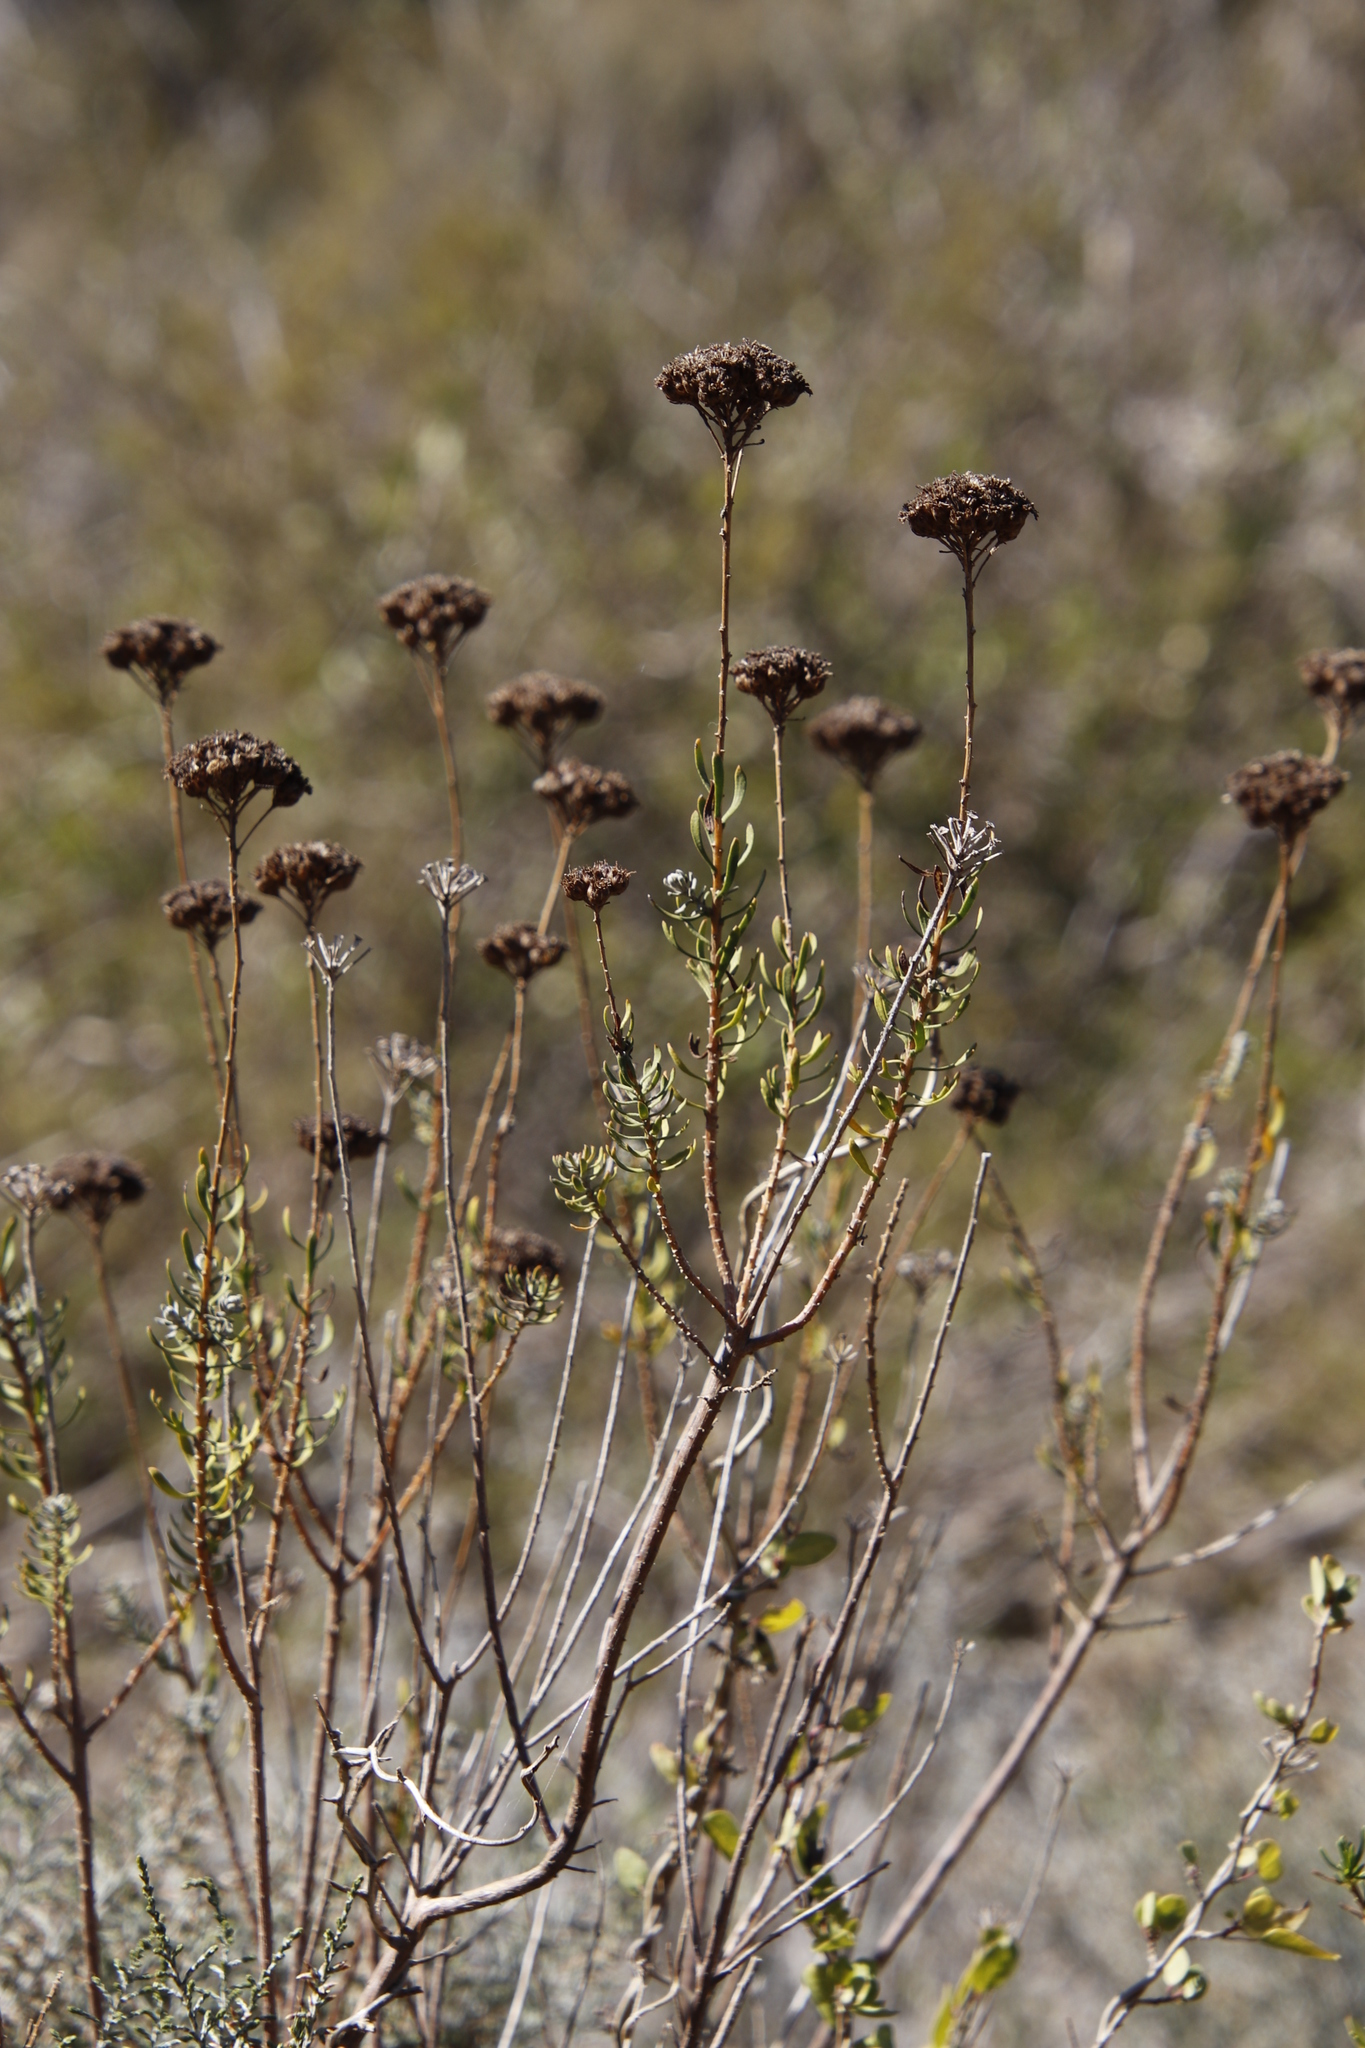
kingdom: Plantae
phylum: Tracheophyta
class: Magnoliopsida
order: Asterales
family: Asteraceae
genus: Athanasia
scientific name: Athanasia trifurcata
